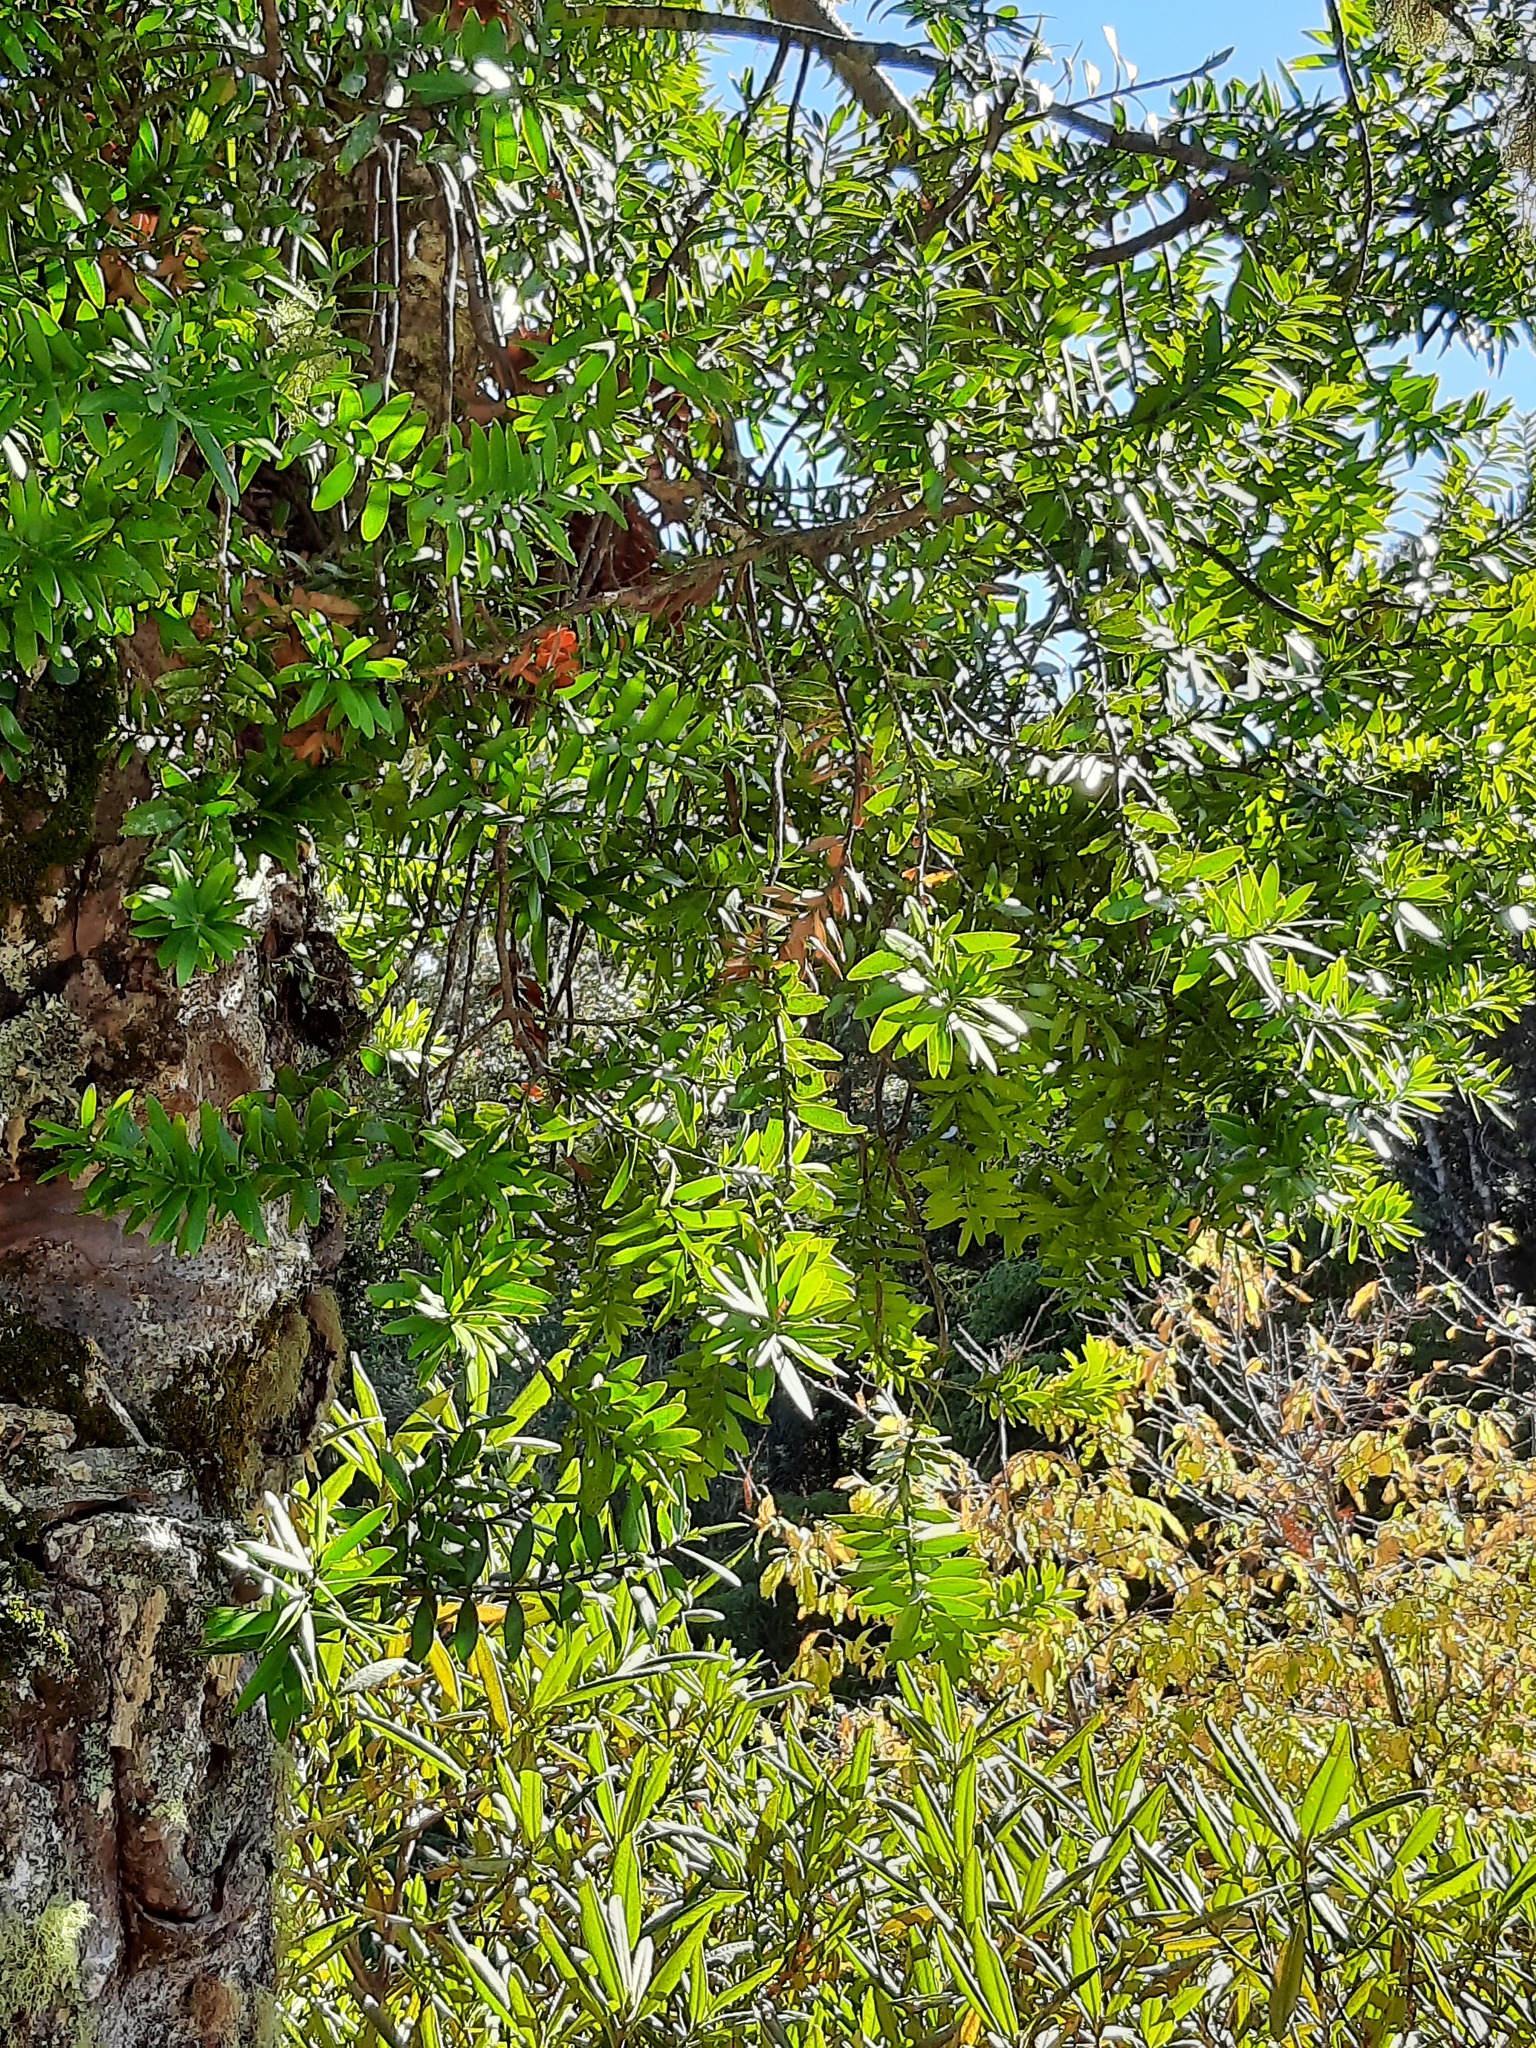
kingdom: Plantae
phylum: Tracheophyta
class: Pinopsida
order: Pinales
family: Araucariaceae
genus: Agathis
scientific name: Agathis australis
